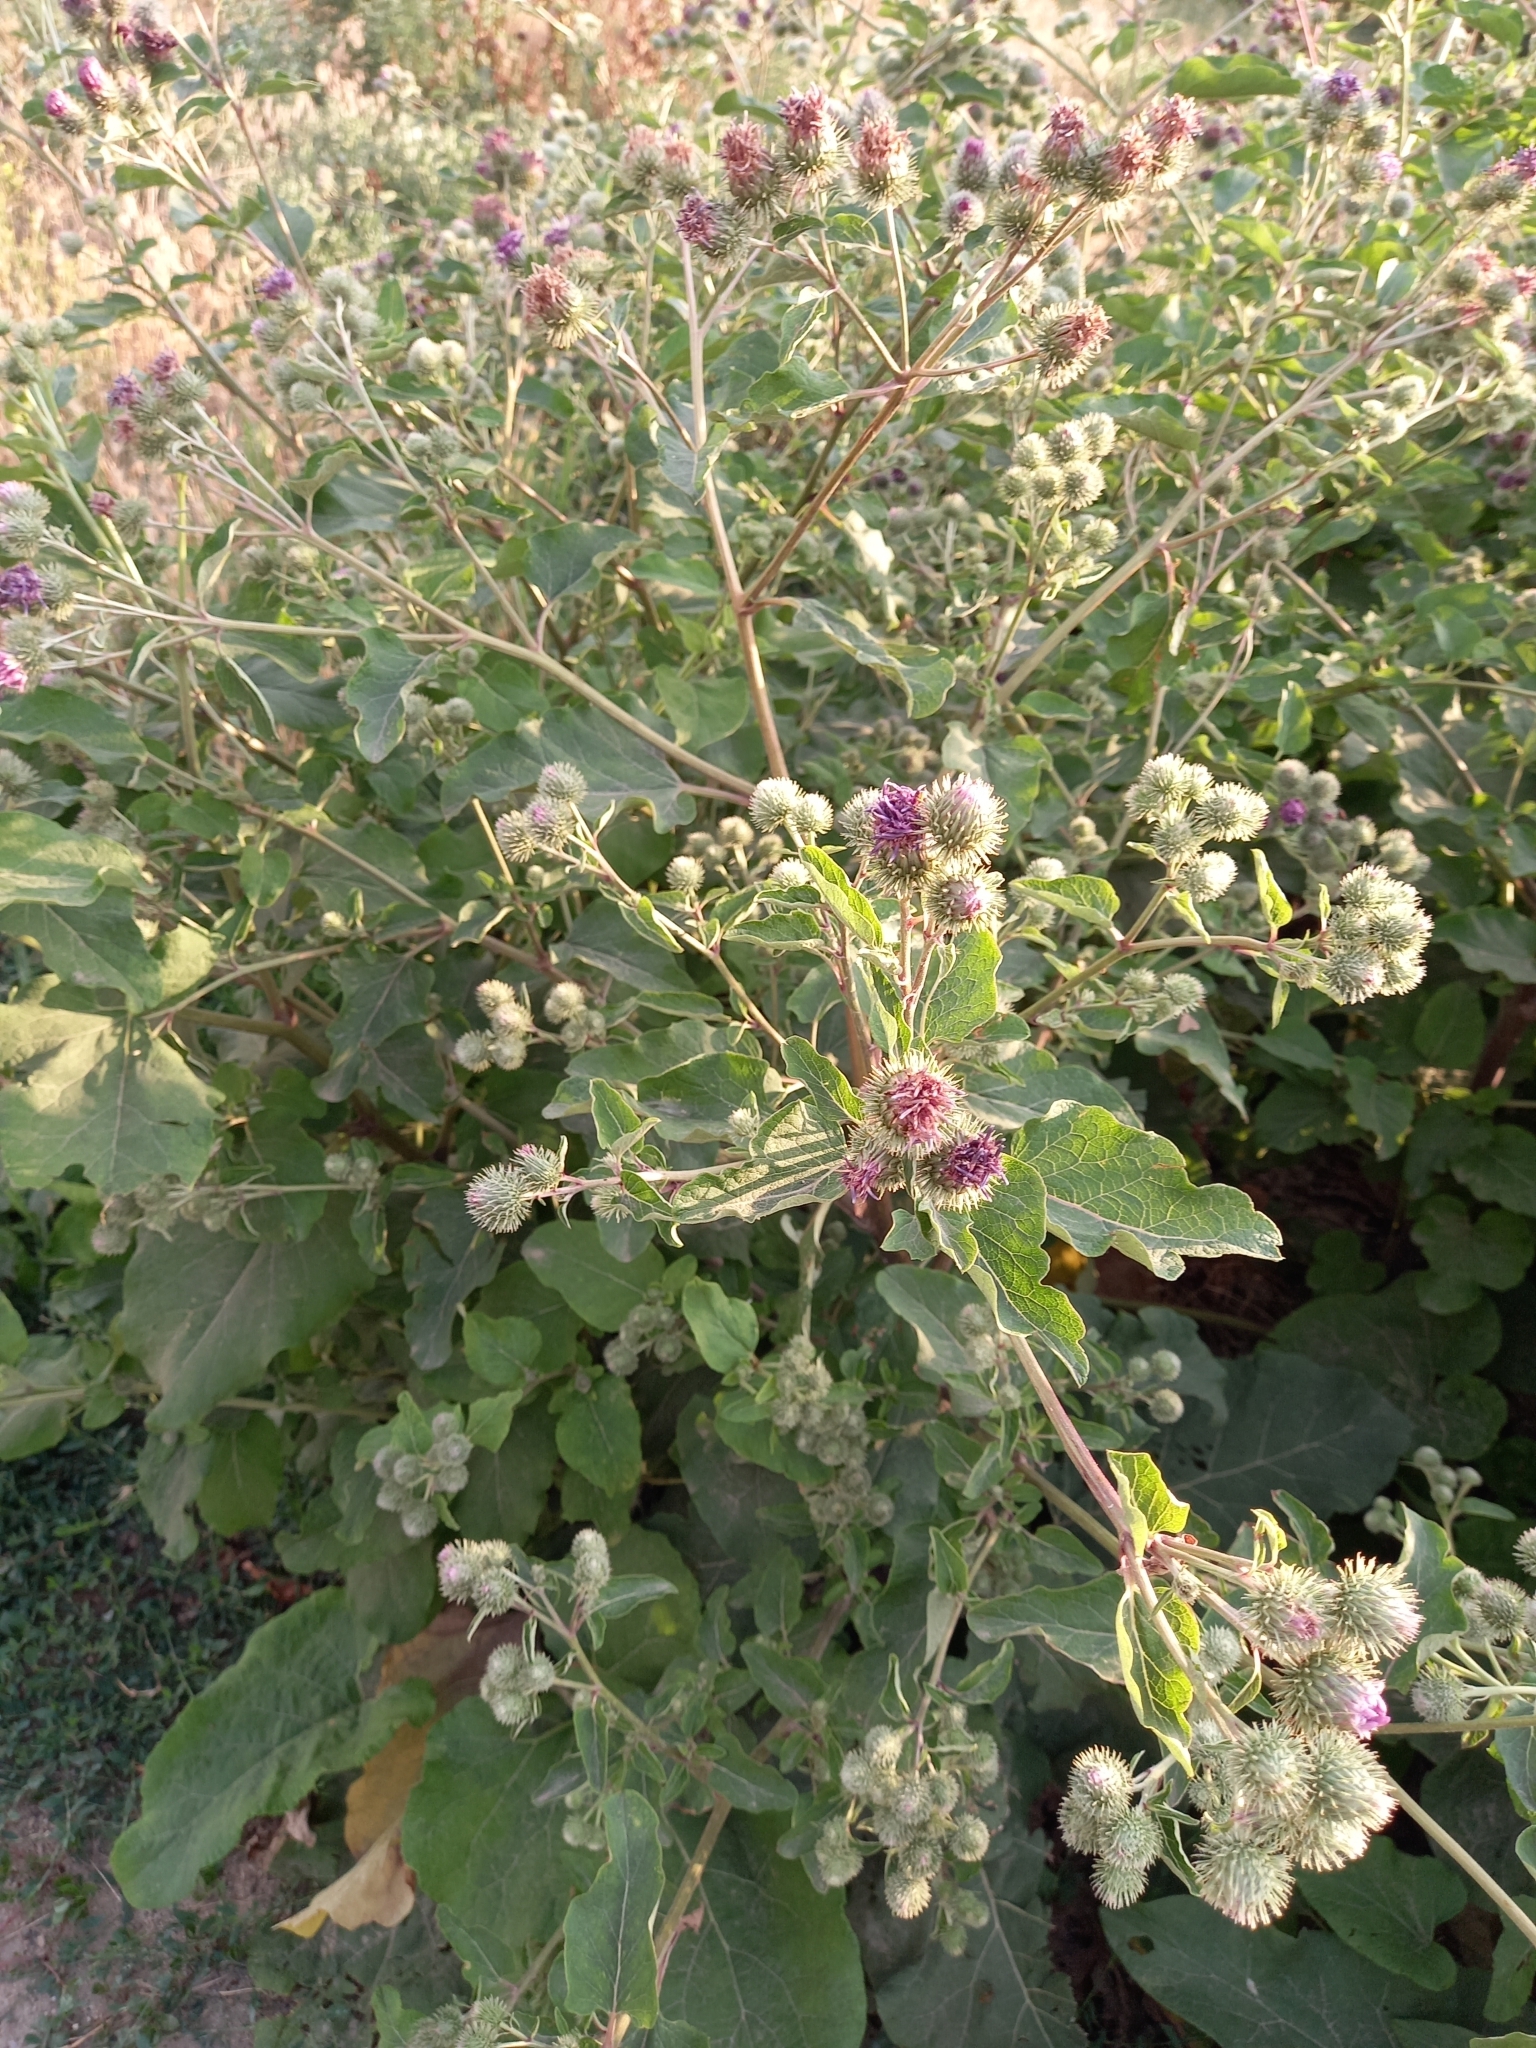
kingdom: Plantae
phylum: Tracheophyta
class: Magnoliopsida
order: Asterales
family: Asteraceae
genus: Arctium
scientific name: Arctium tomentosum
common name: Woolly burdock
